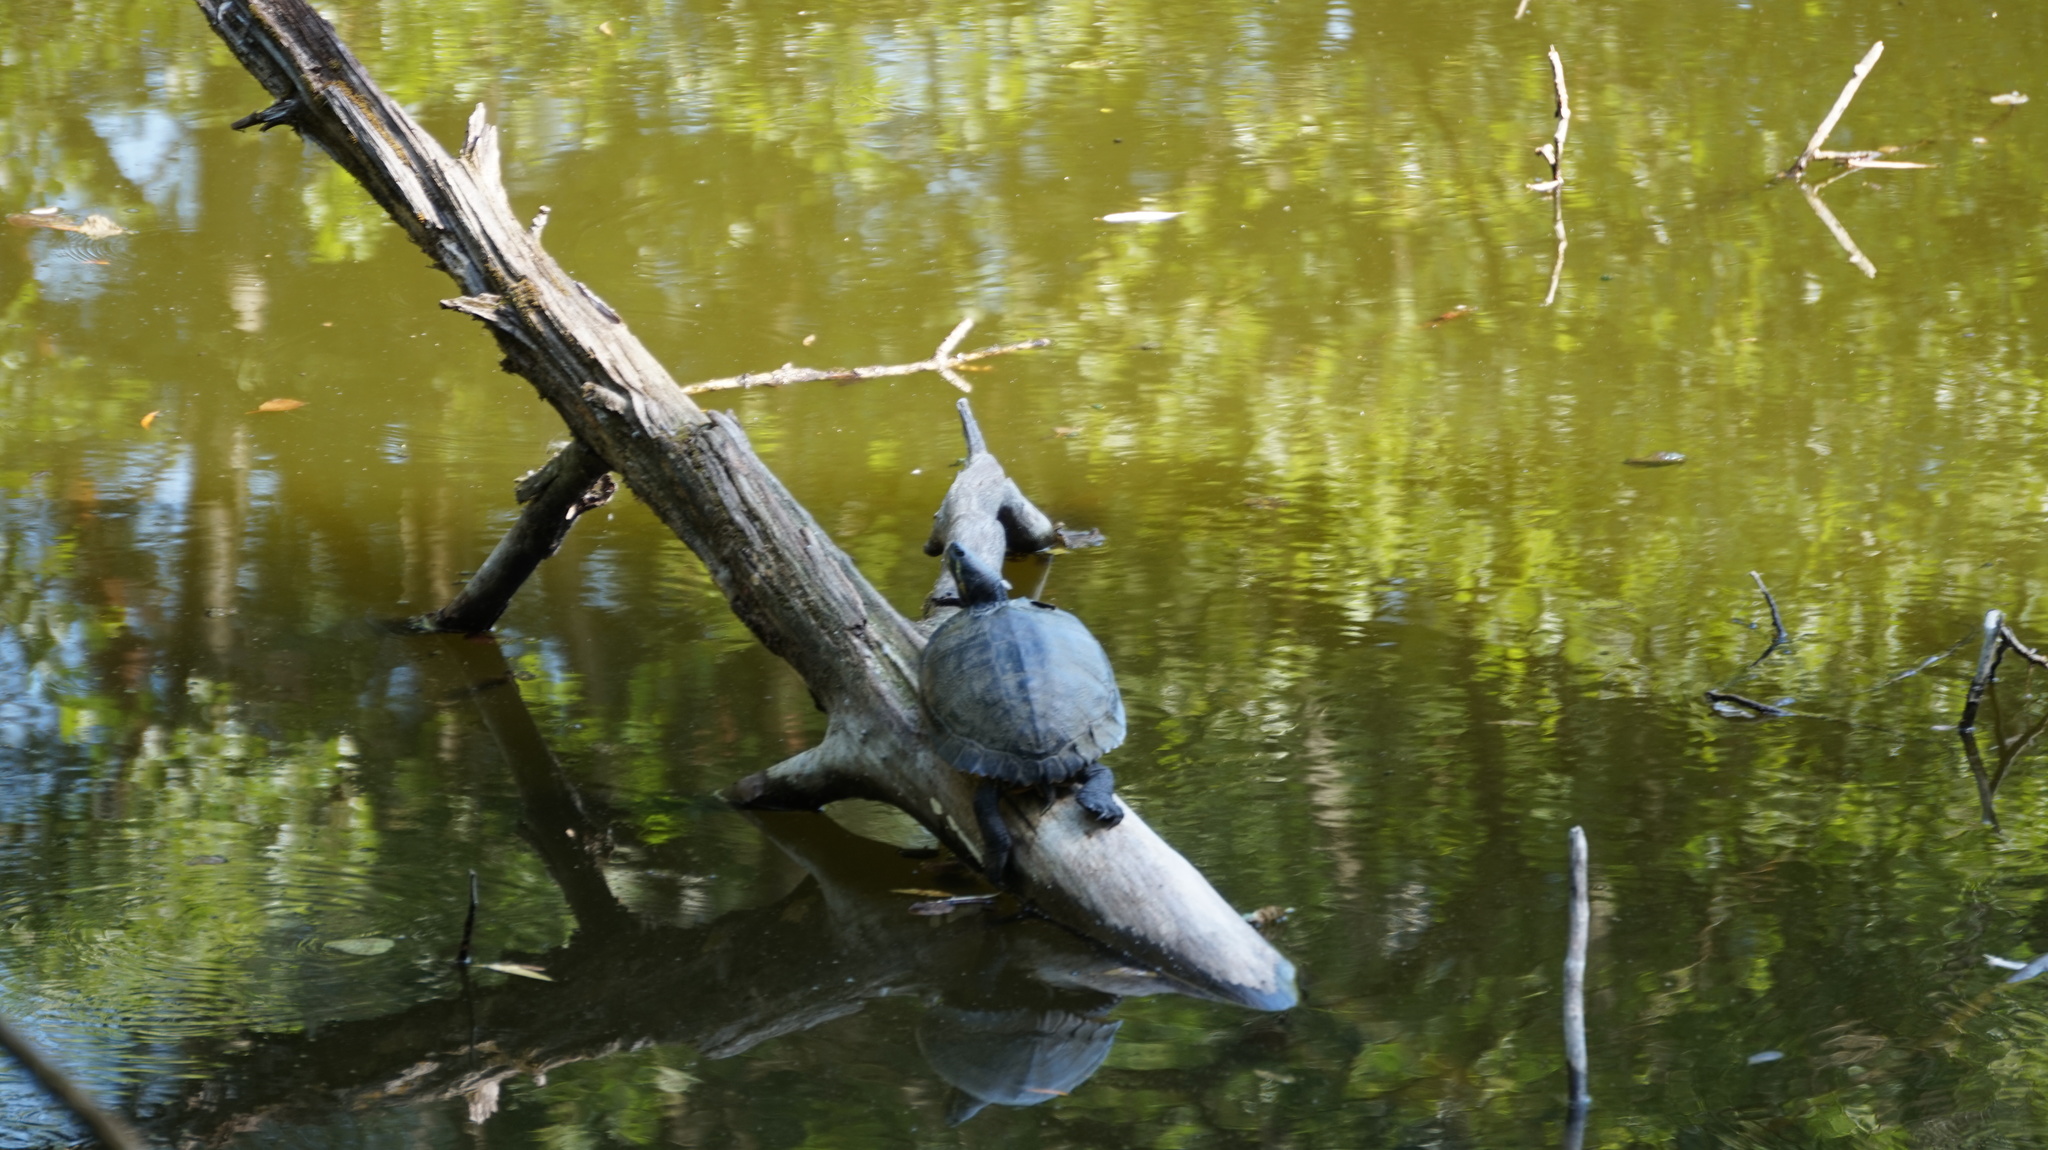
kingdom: Animalia
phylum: Chordata
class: Testudines
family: Emydidae
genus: Trachemys
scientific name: Trachemys scripta
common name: Slider
